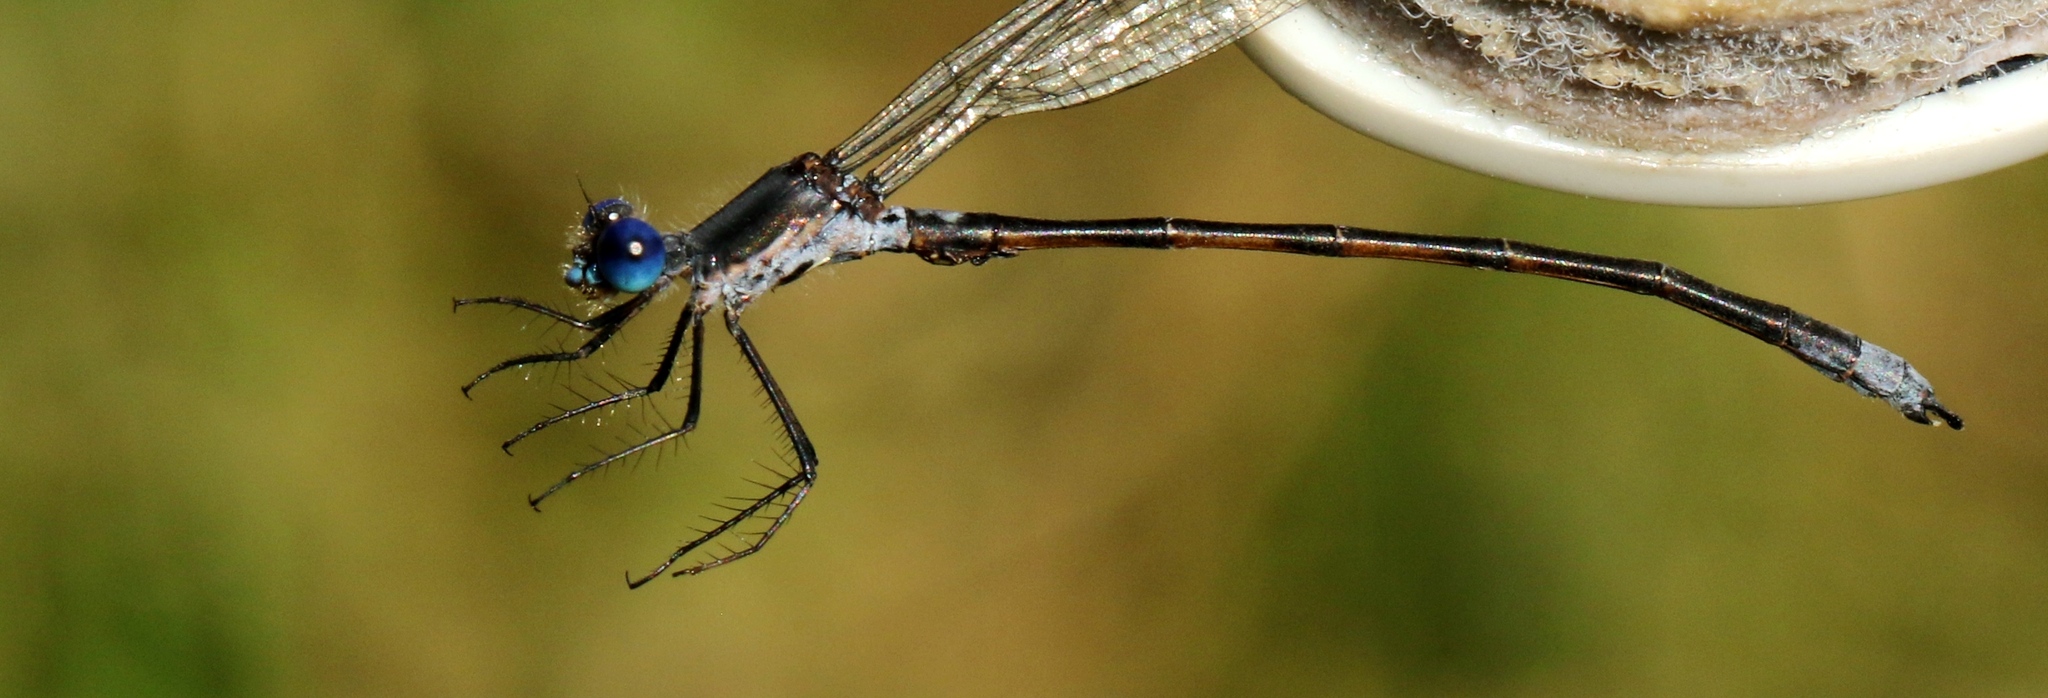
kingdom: Animalia
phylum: Arthropoda
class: Insecta
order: Odonata
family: Lestidae
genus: Lestes
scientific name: Lestes congener
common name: Spotted spreadwing
